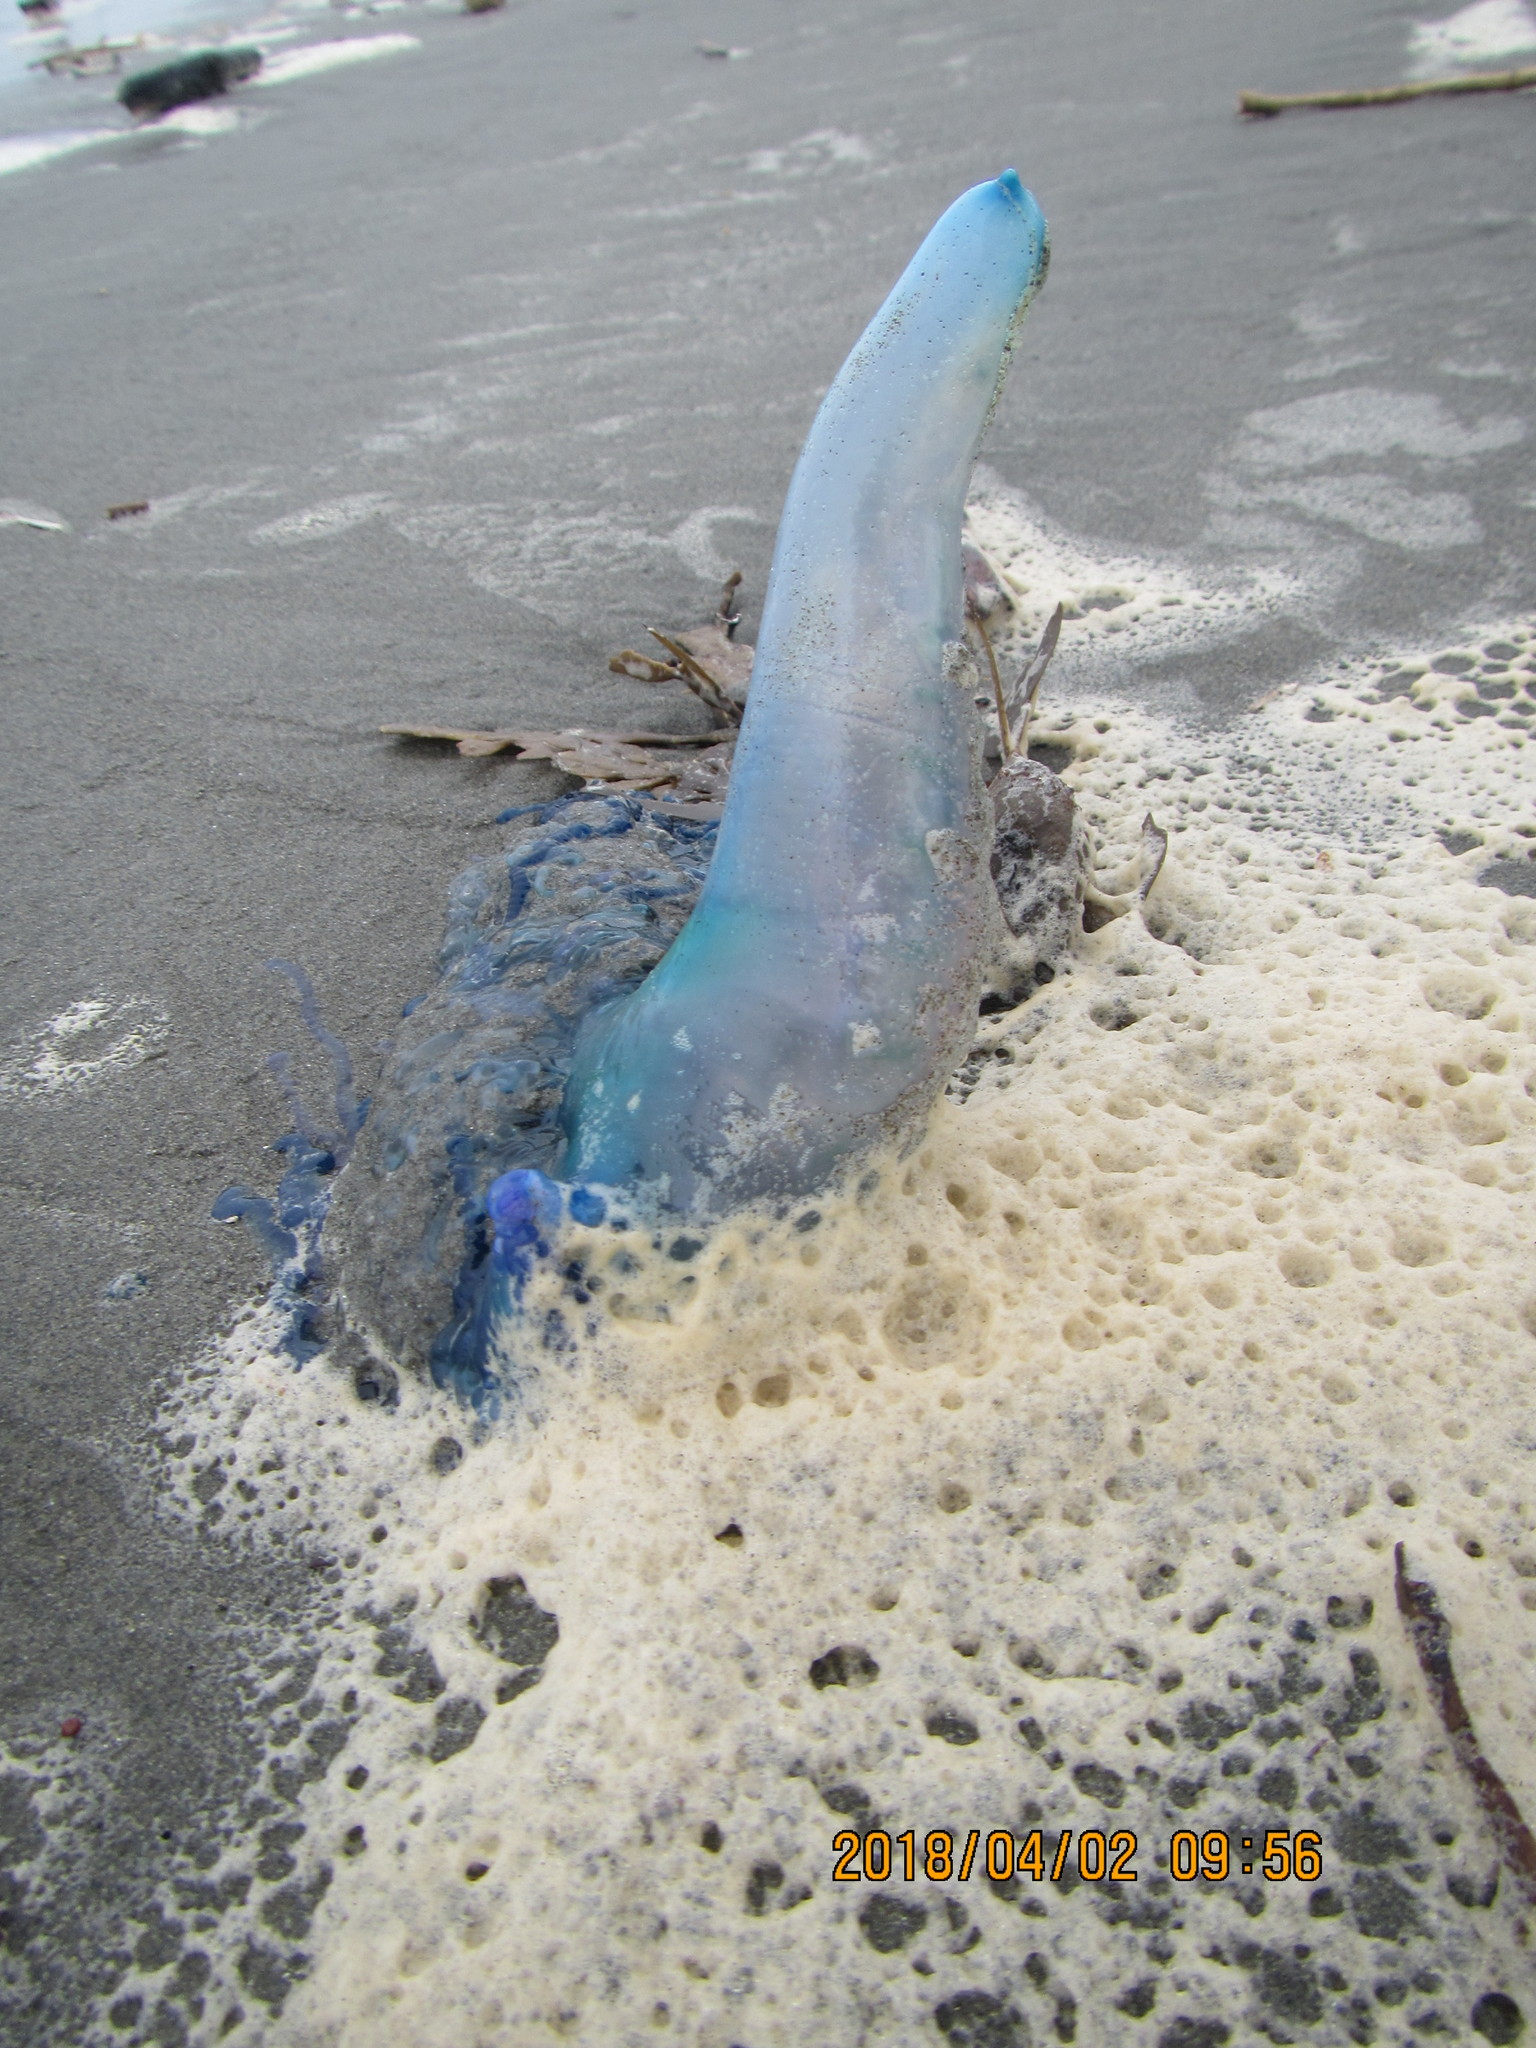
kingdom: Animalia
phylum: Cnidaria
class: Hydrozoa
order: Siphonophorae
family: Physaliidae
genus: Physalia
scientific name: Physalia physalis
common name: Portuguese man-of-war
